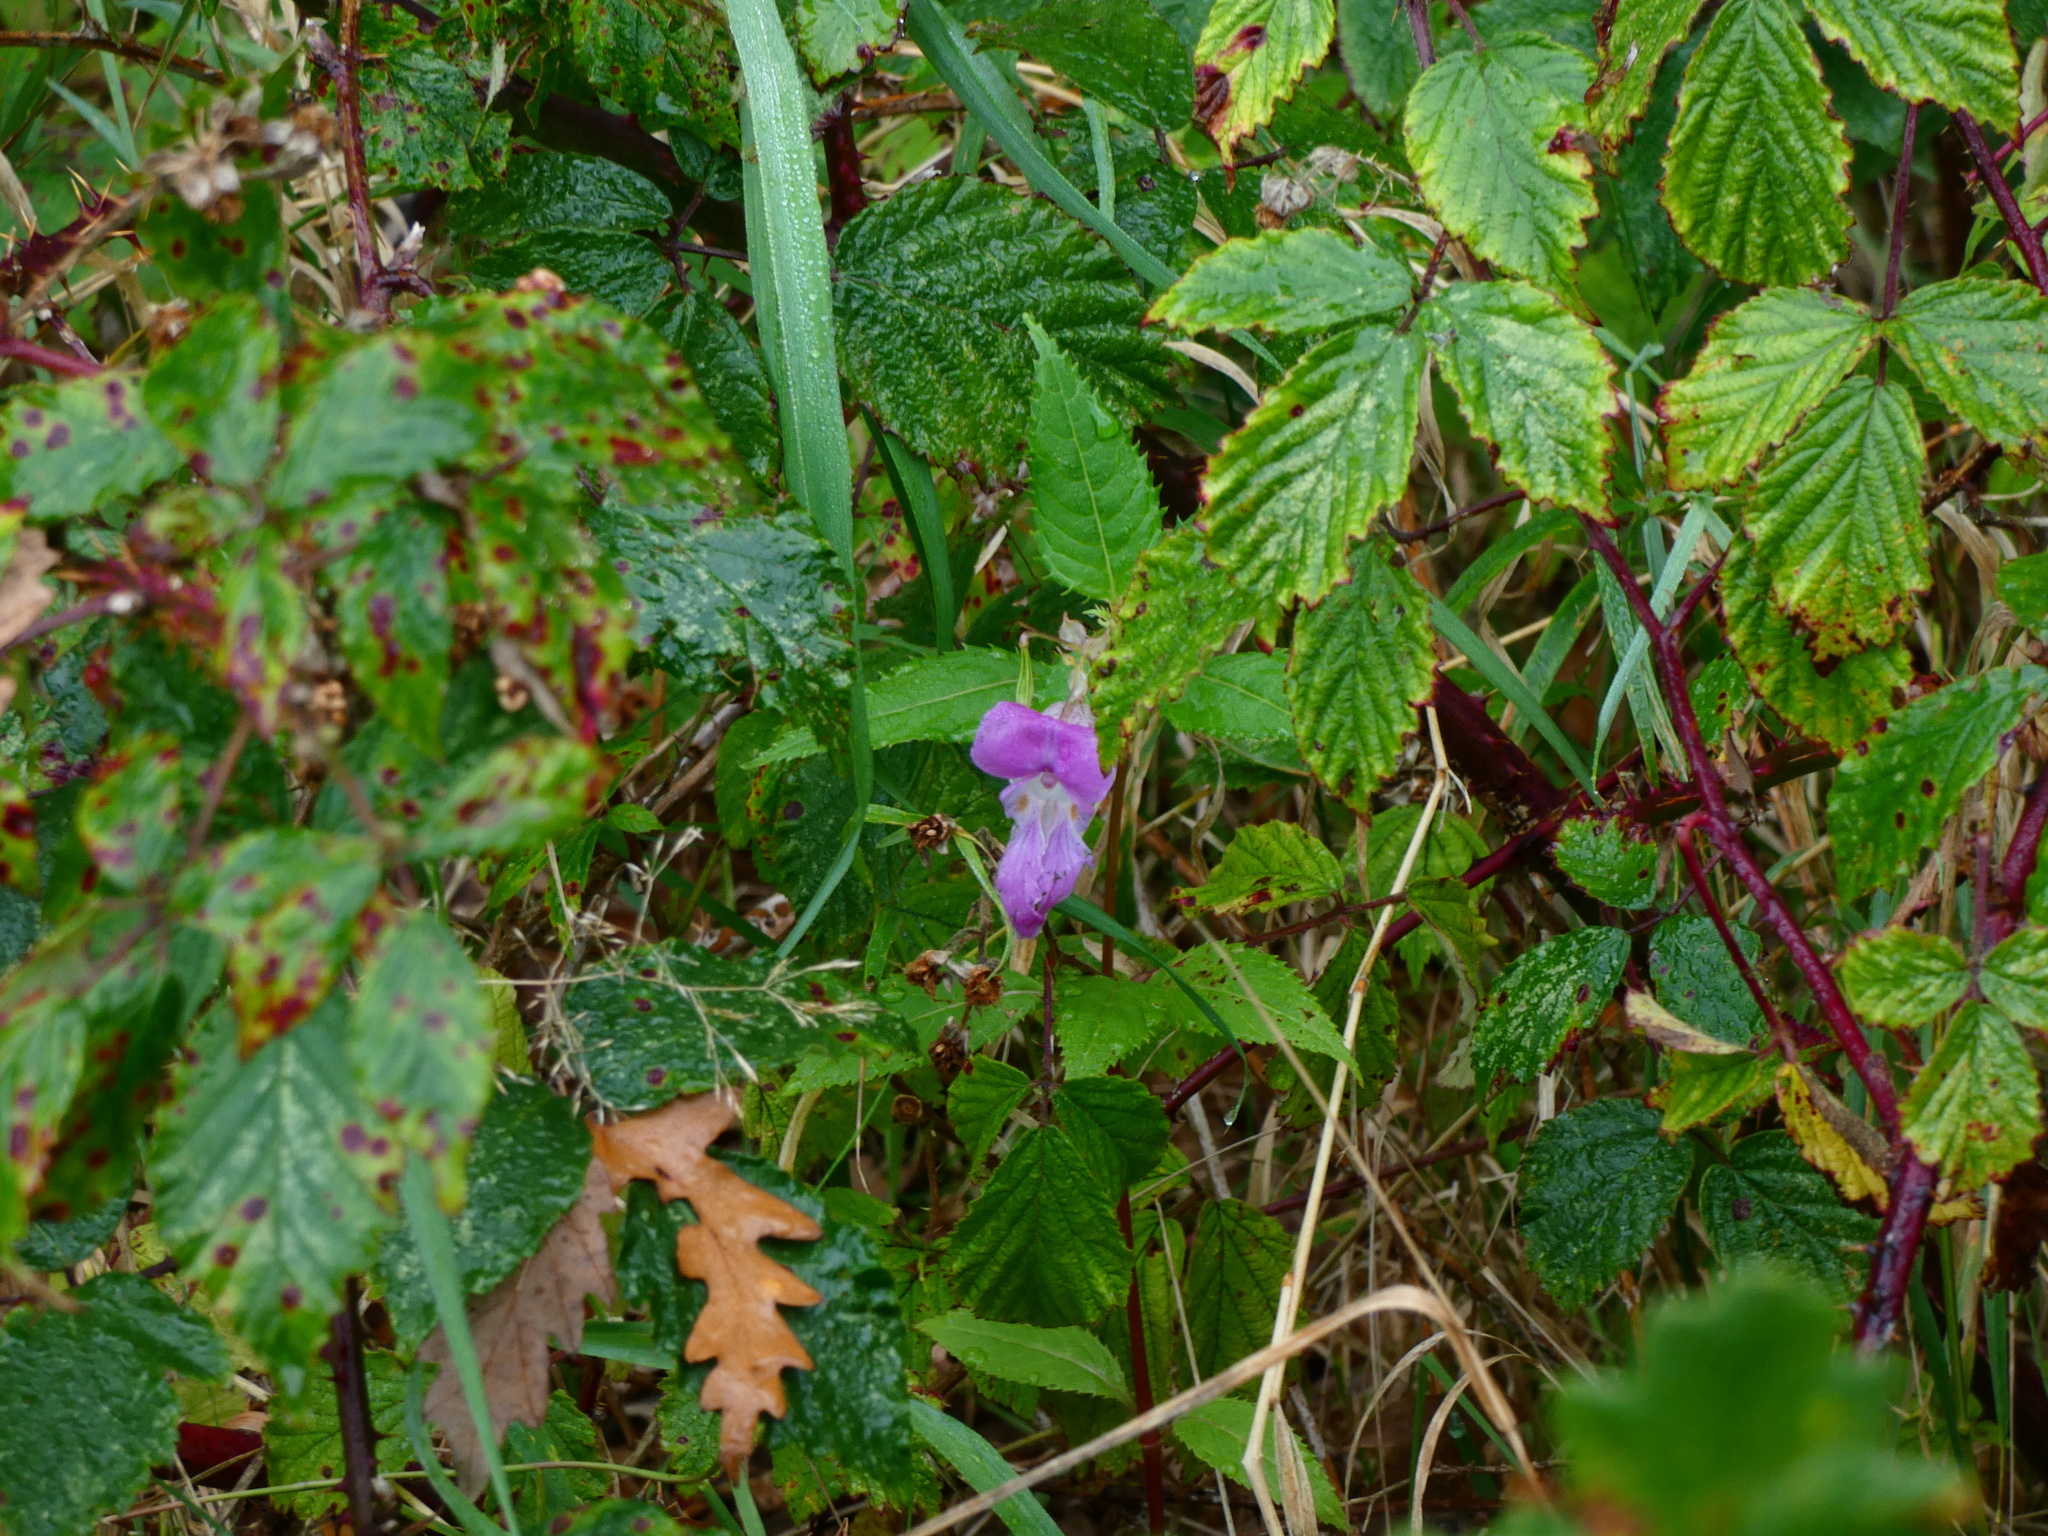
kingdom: Plantae
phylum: Tracheophyta
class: Magnoliopsida
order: Ericales
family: Balsaminaceae
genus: Impatiens
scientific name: Impatiens glandulifera
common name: Himalayan balsam
